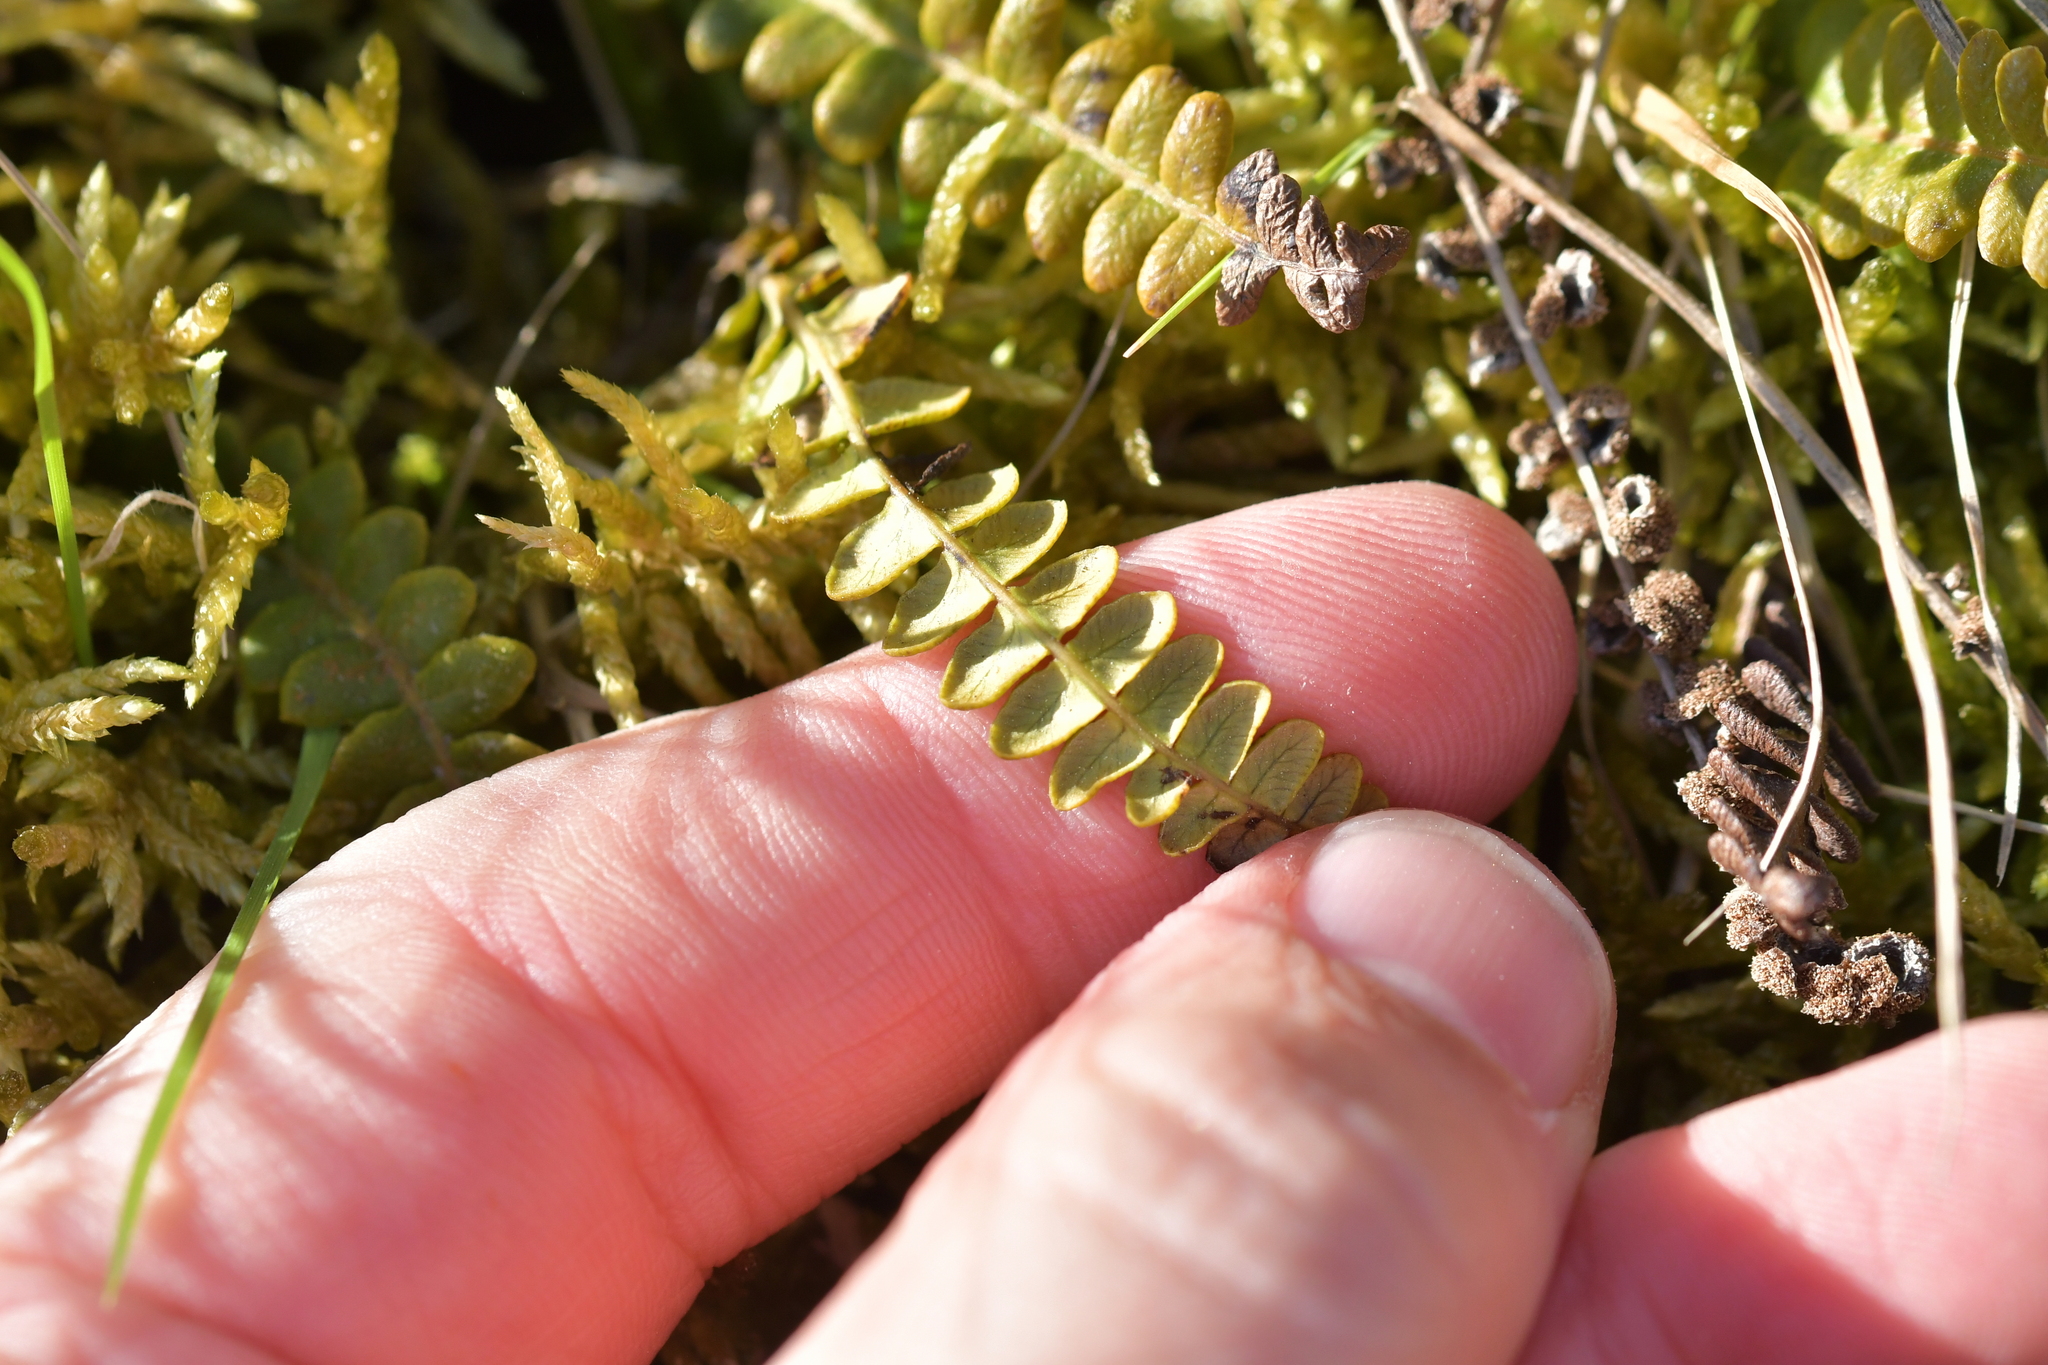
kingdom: Plantae
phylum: Tracheophyta
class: Polypodiopsida
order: Polypodiales
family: Blechnaceae
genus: Austroblechnum
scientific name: Austroblechnum penna-marina
